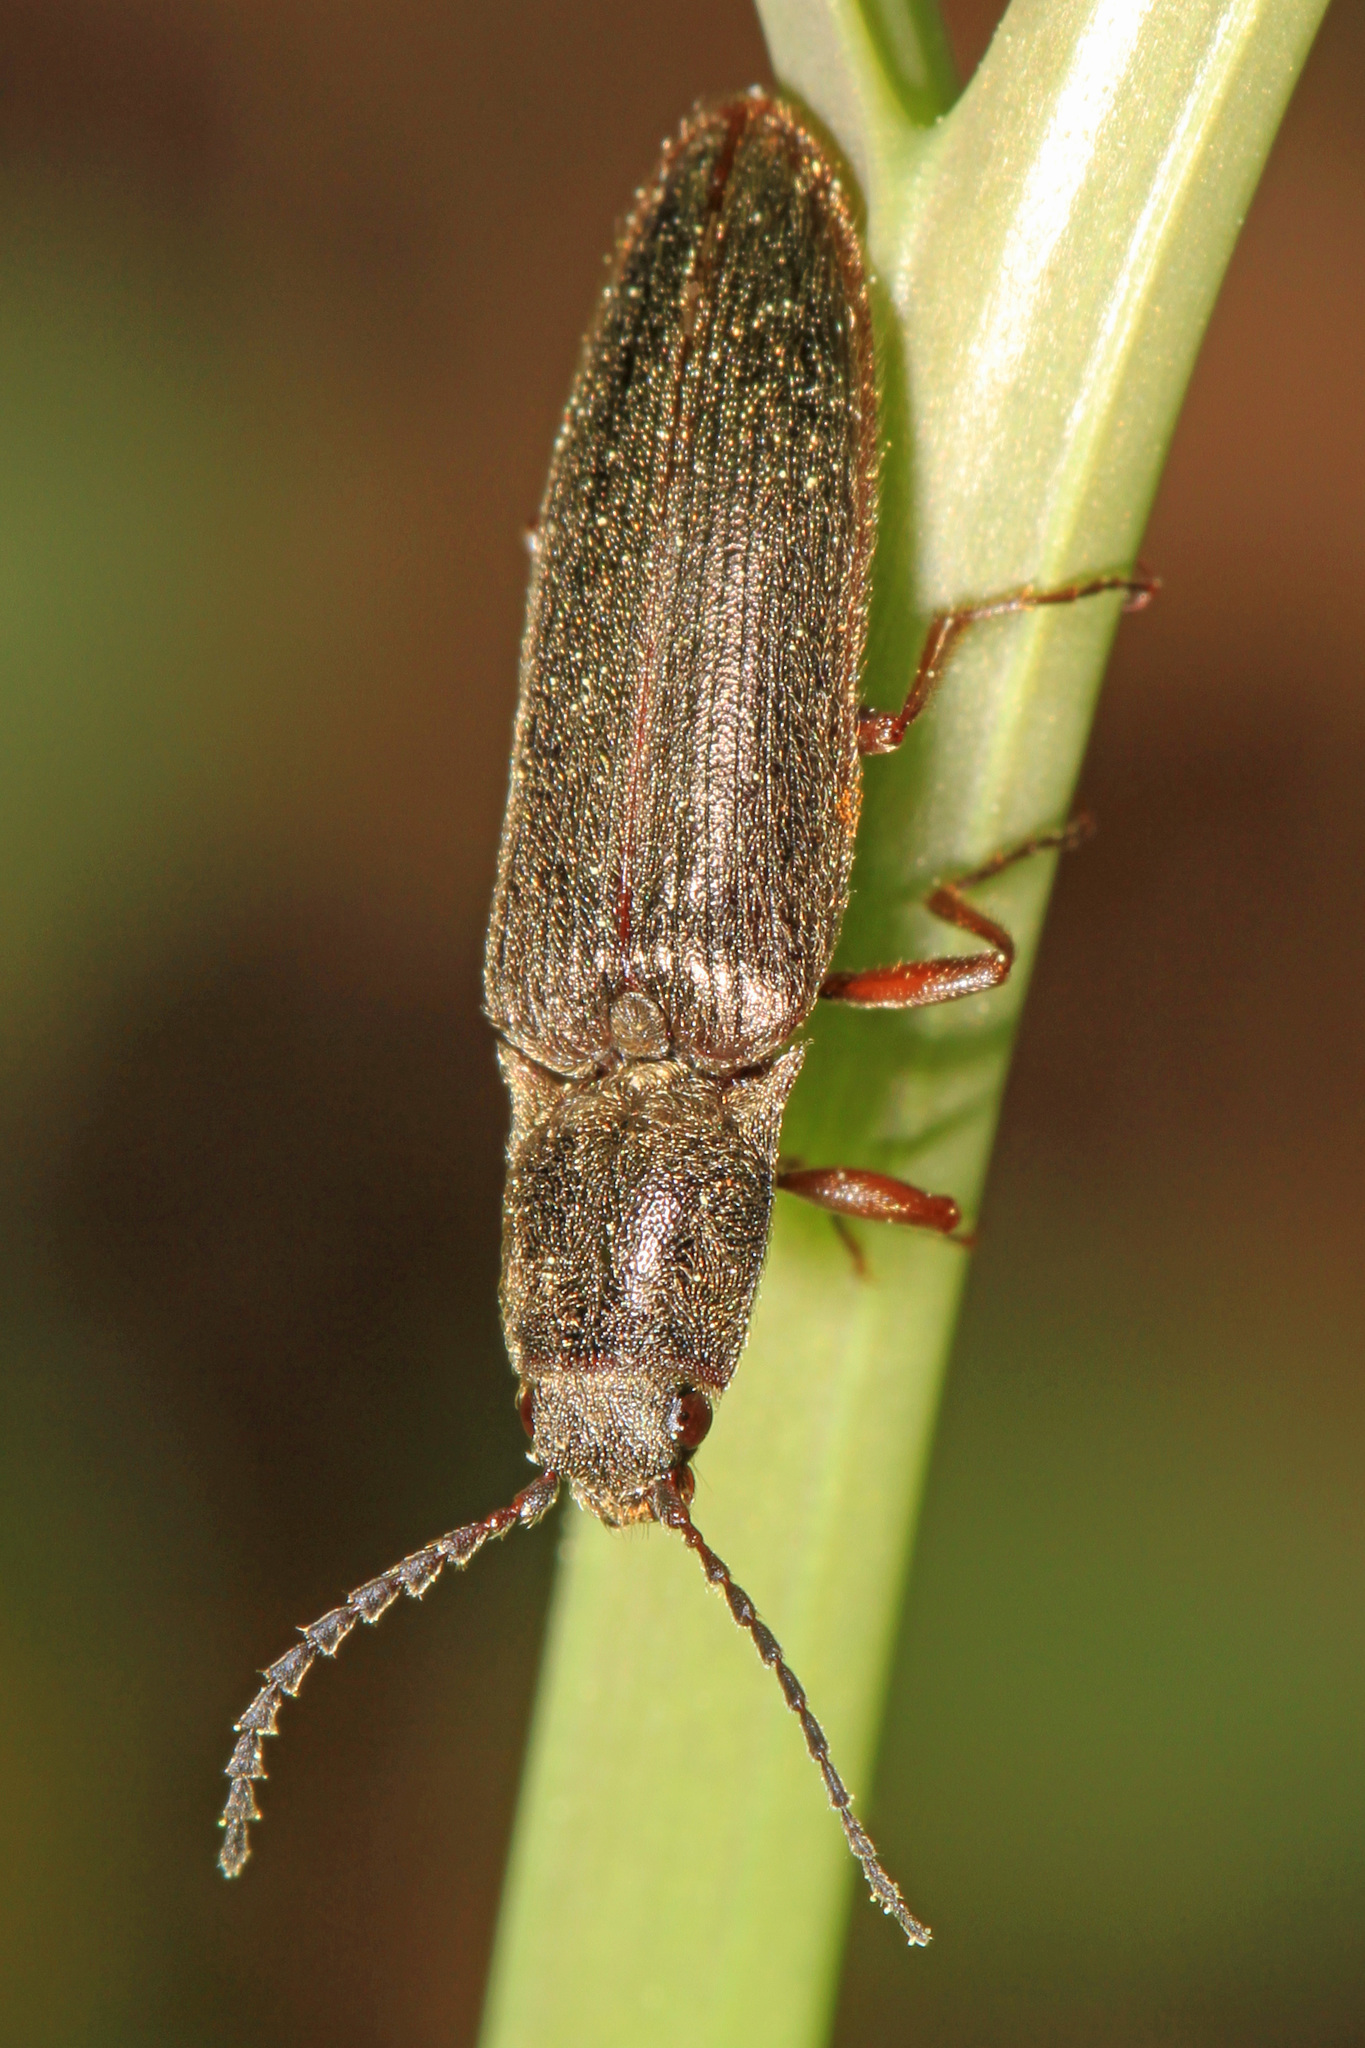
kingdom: Animalia
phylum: Arthropoda
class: Insecta
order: Coleoptera
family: Elateridae
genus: Sylvanelater
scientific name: Sylvanelater cylindriformis
